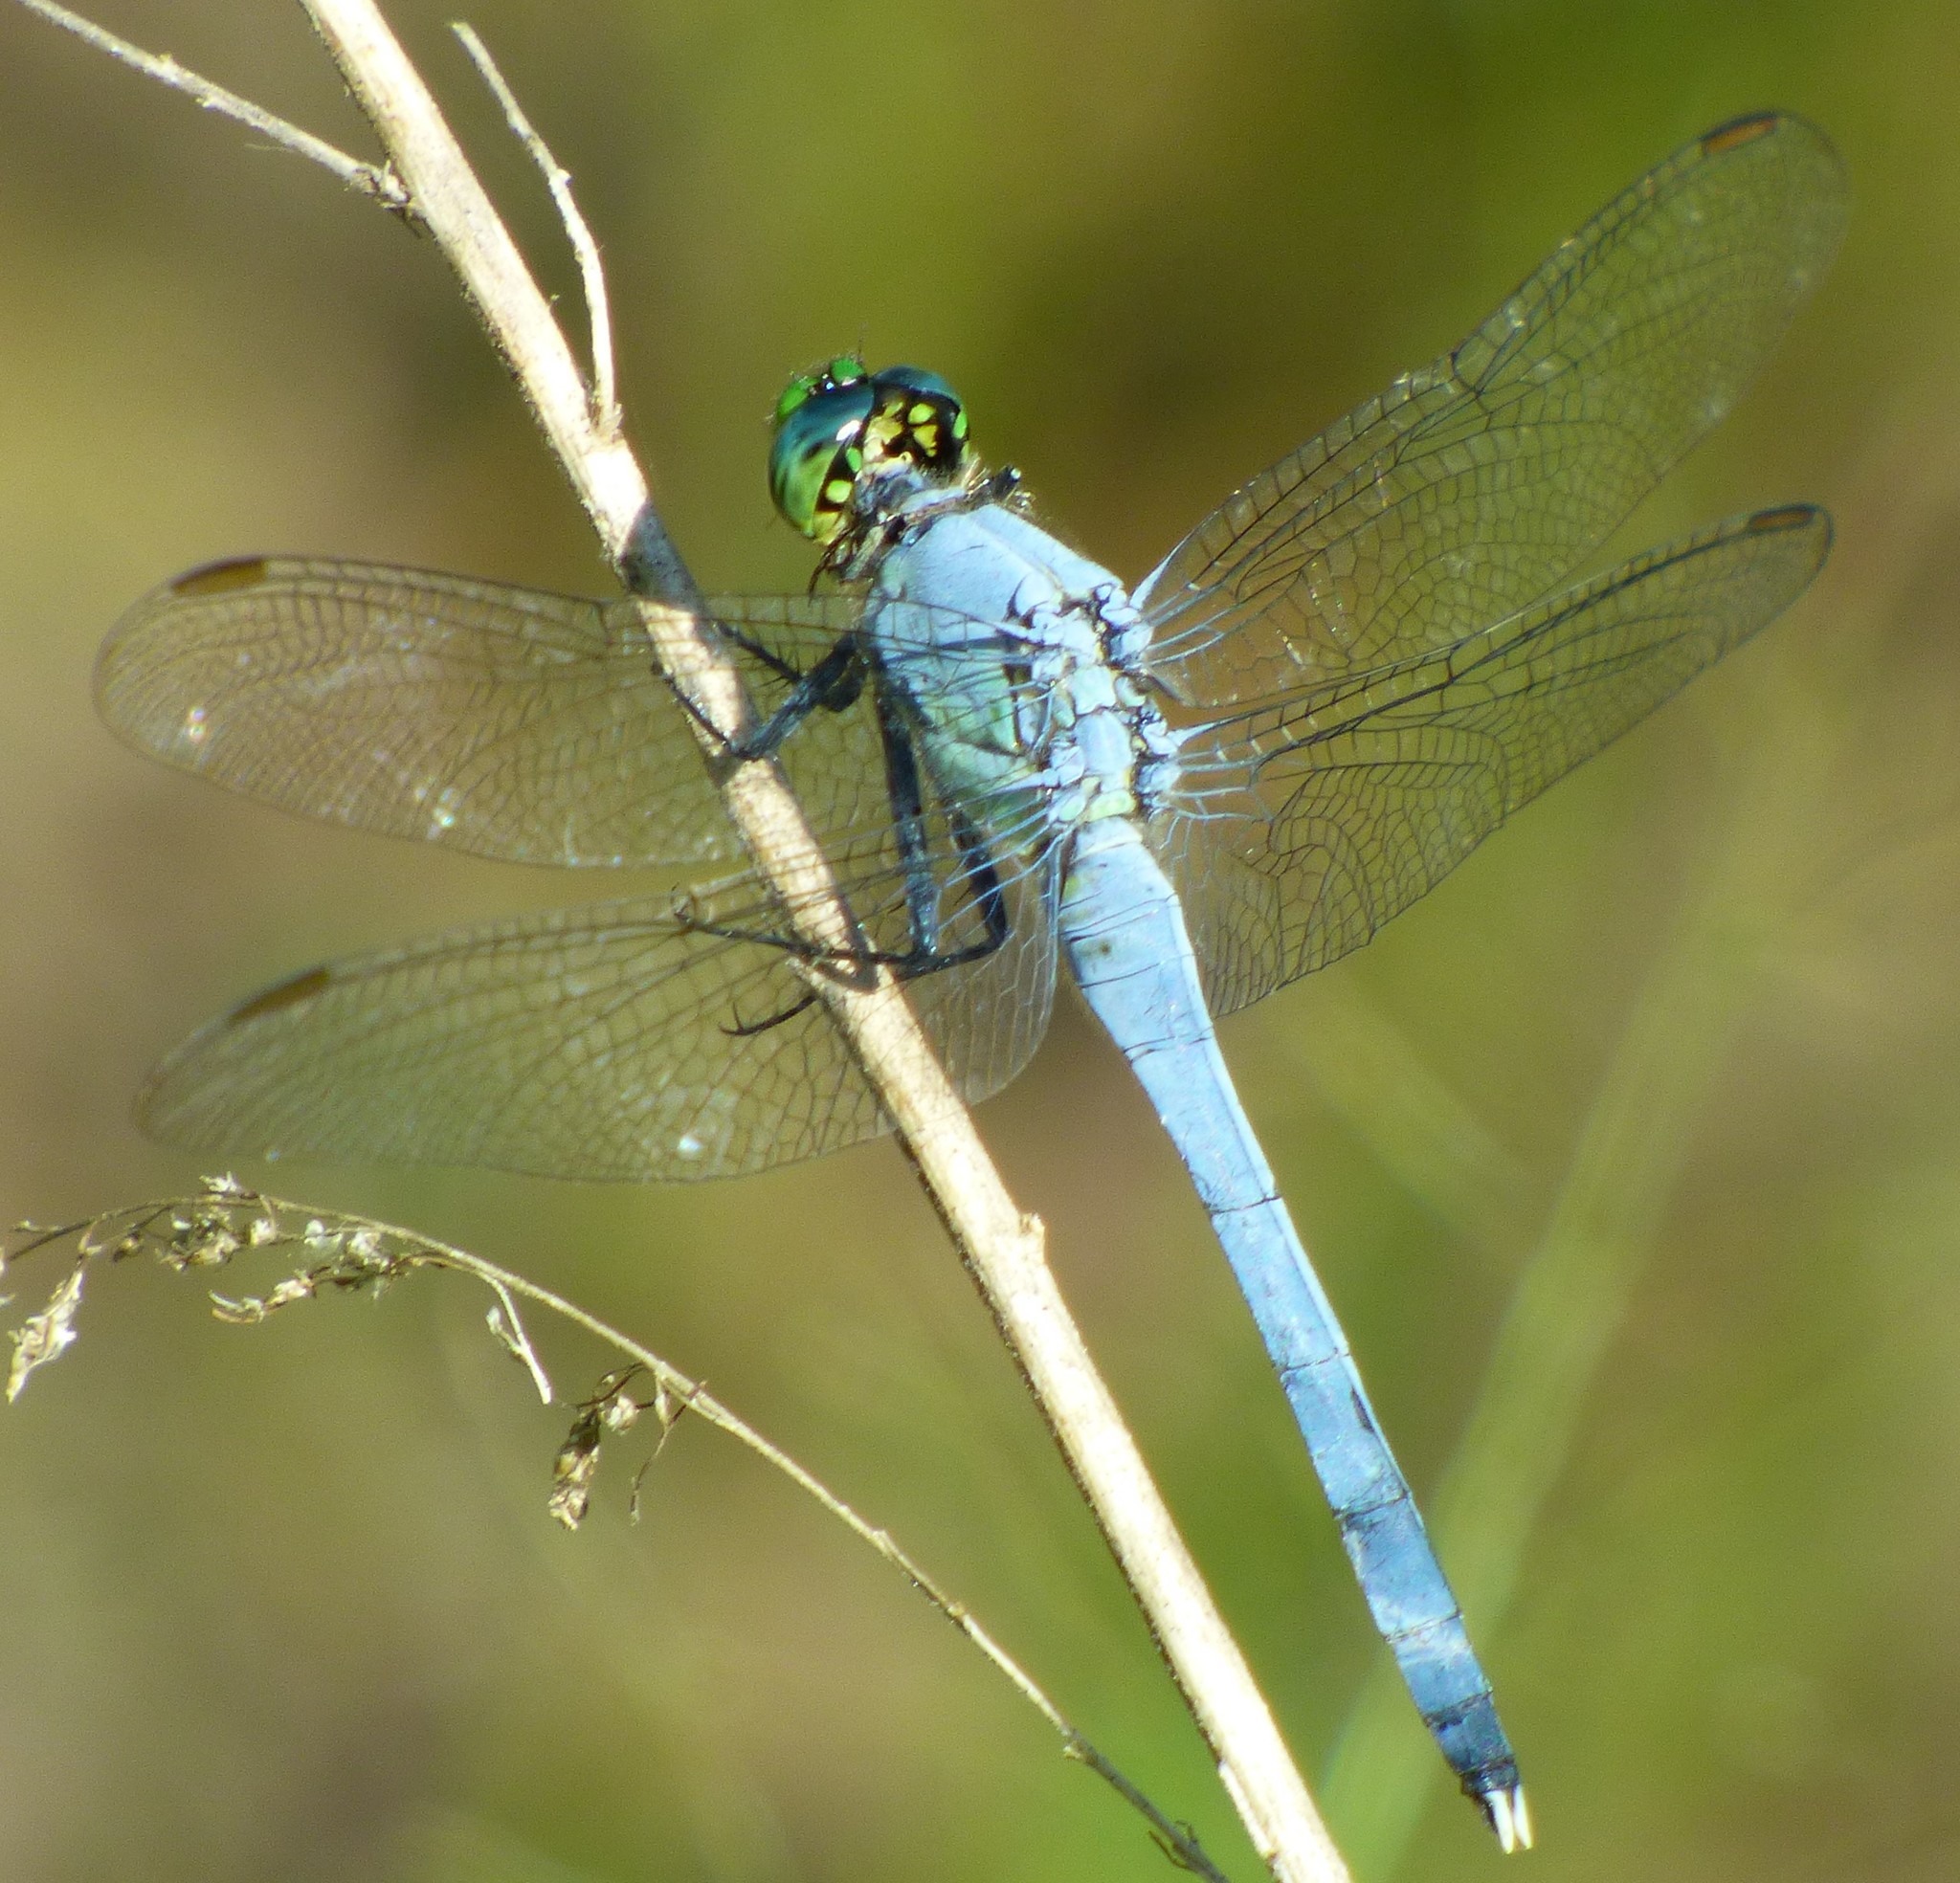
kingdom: Animalia
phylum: Arthropoda
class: Insecta
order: Odonata
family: Libellulidae
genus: Erythemis
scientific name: Erythemis simplicicollis
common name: Eastern pondhawk
